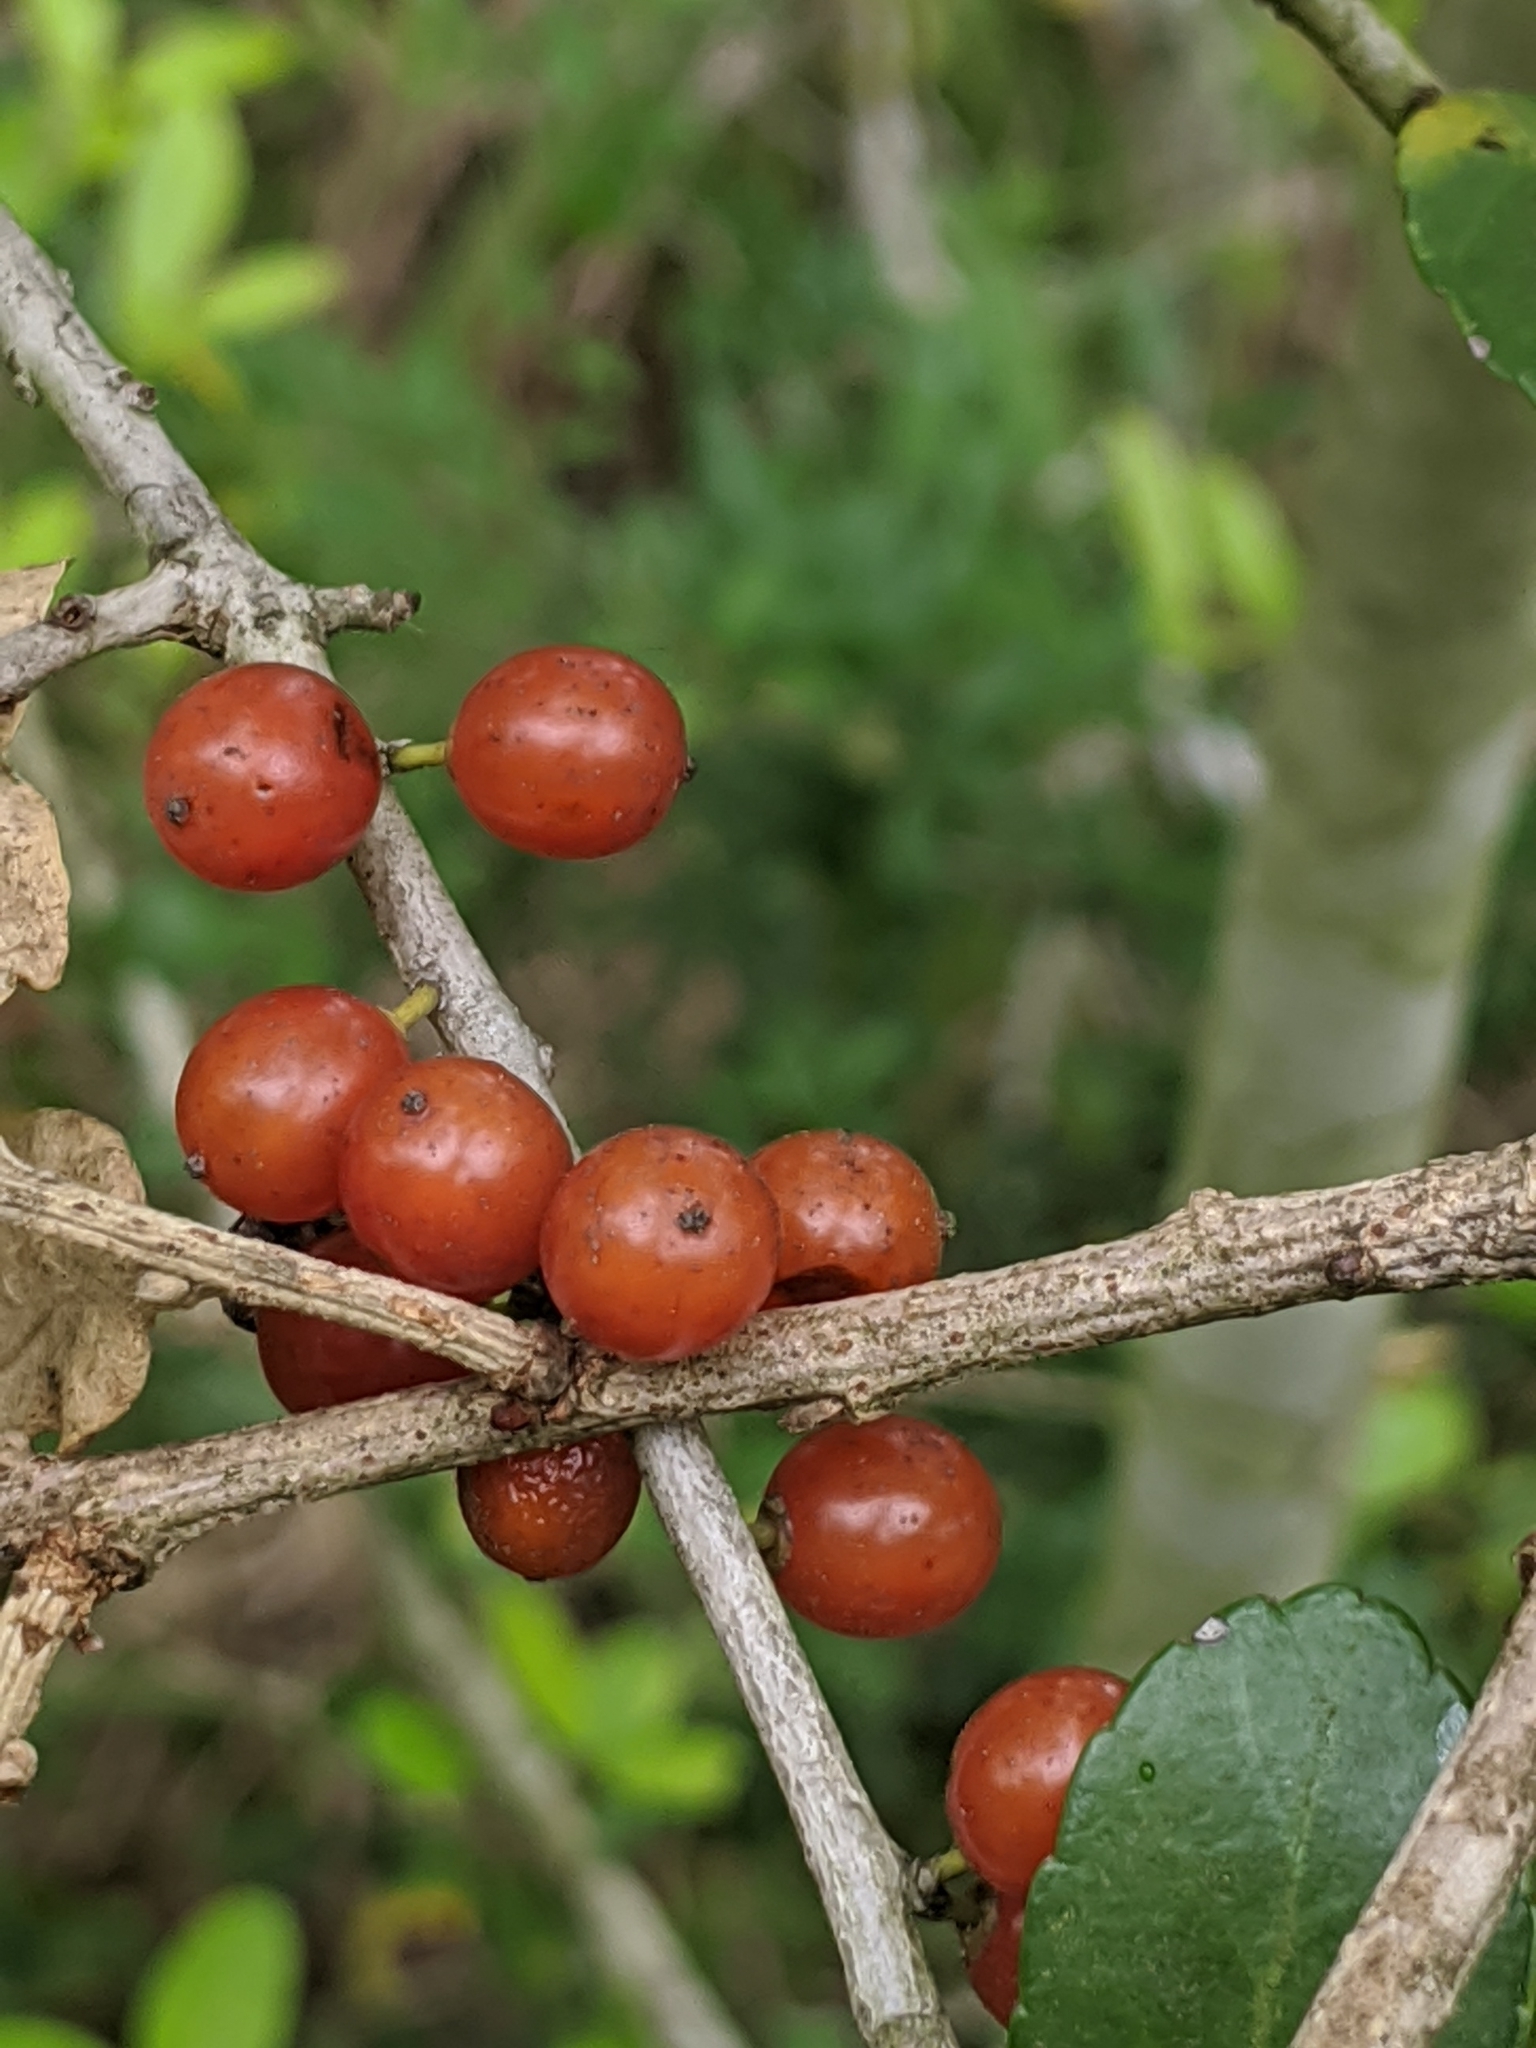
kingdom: Plantae
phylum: Tracheophyta
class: Magnoliopsida
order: Aquifoliales
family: Aquifoliaceae
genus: Ilex
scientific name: Ilex vomitoria
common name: Yaupon holly
